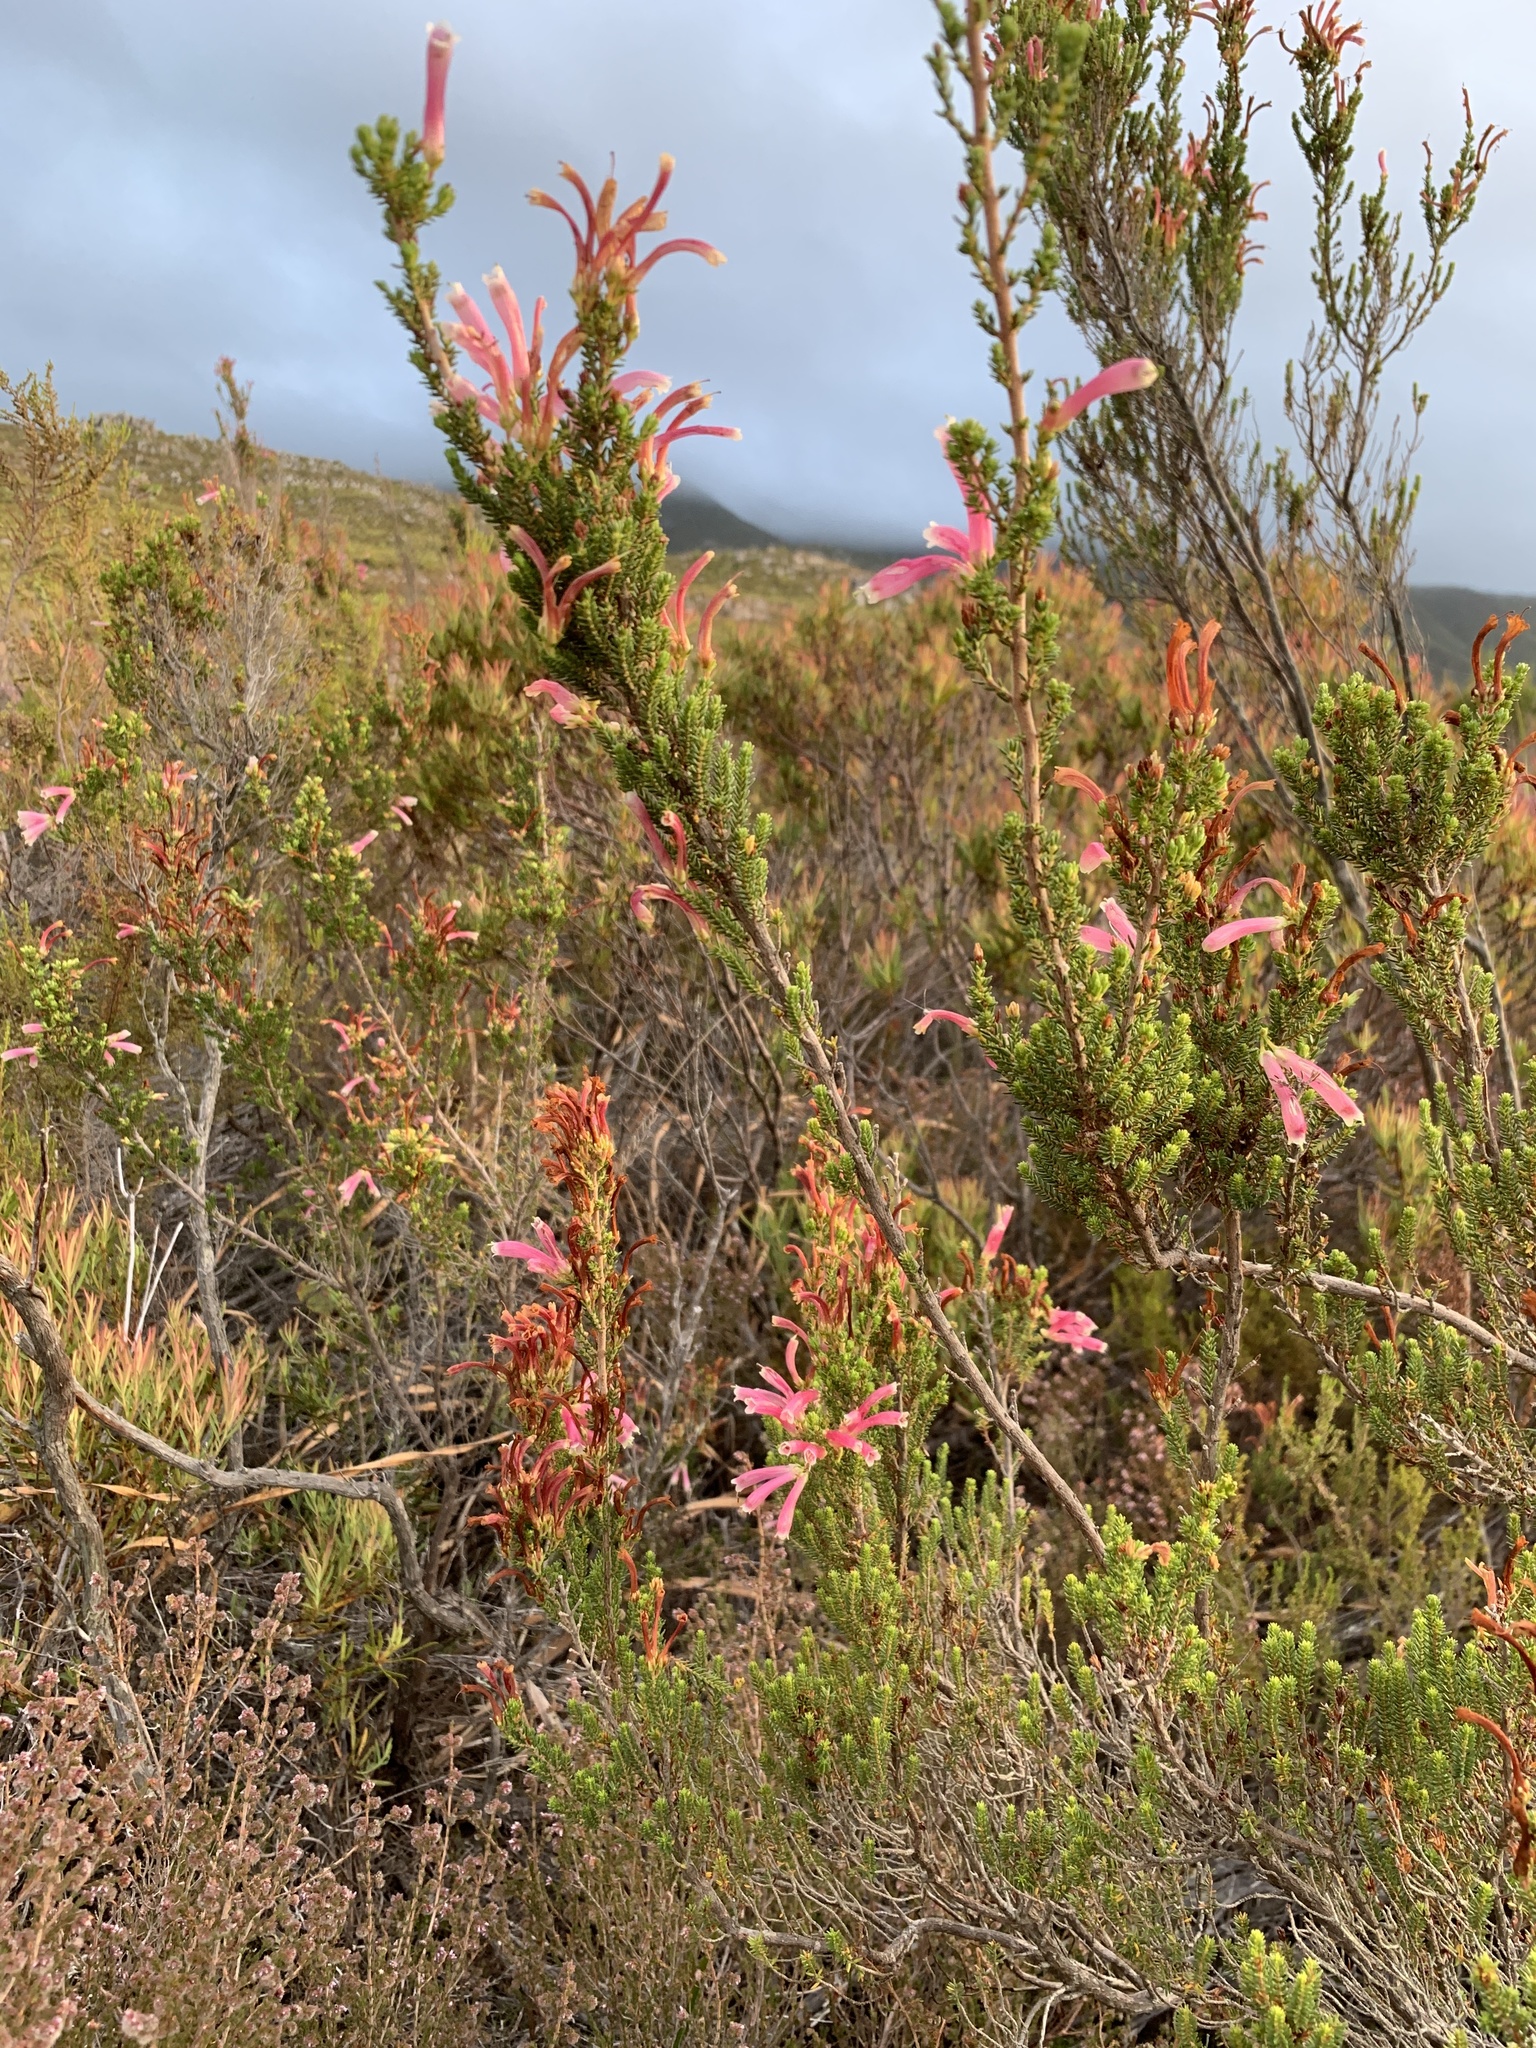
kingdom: Plantae
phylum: Tracheophyta
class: Magnoliopsida
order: Ericales
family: Ericaceae
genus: Erica
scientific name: Erica discolor
